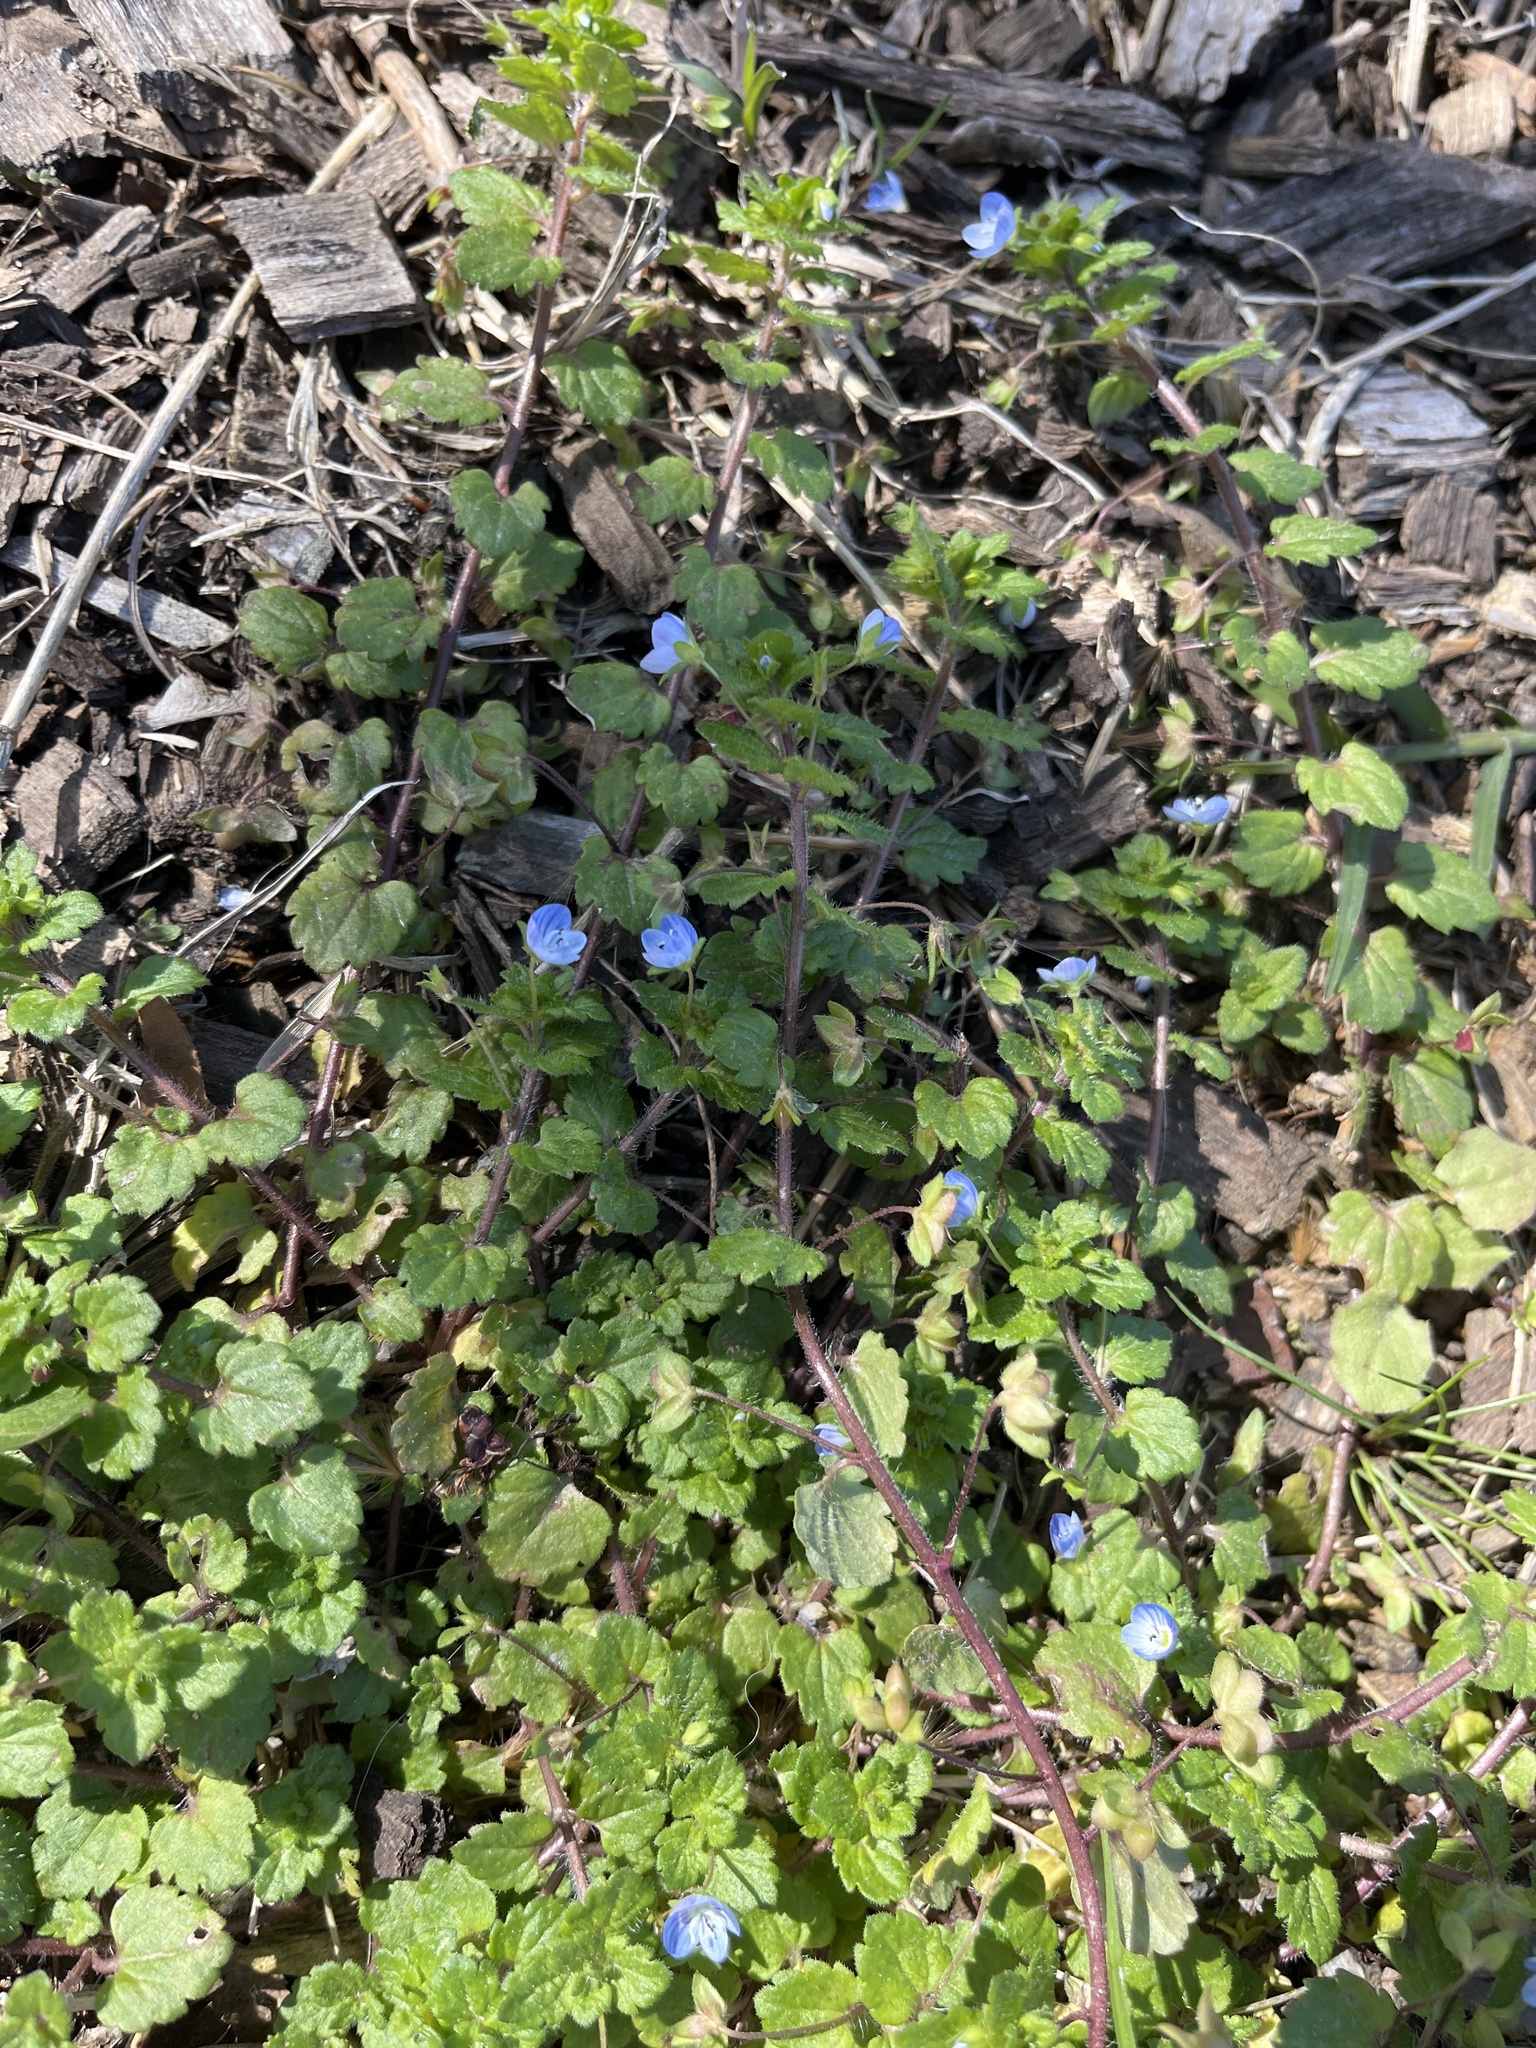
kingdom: Plantae
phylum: Tracheophyta
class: Magnoliopsida
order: Lamiales
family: Plantaginaceae
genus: Veronica
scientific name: Veronica persica
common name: Common field-speedwell
